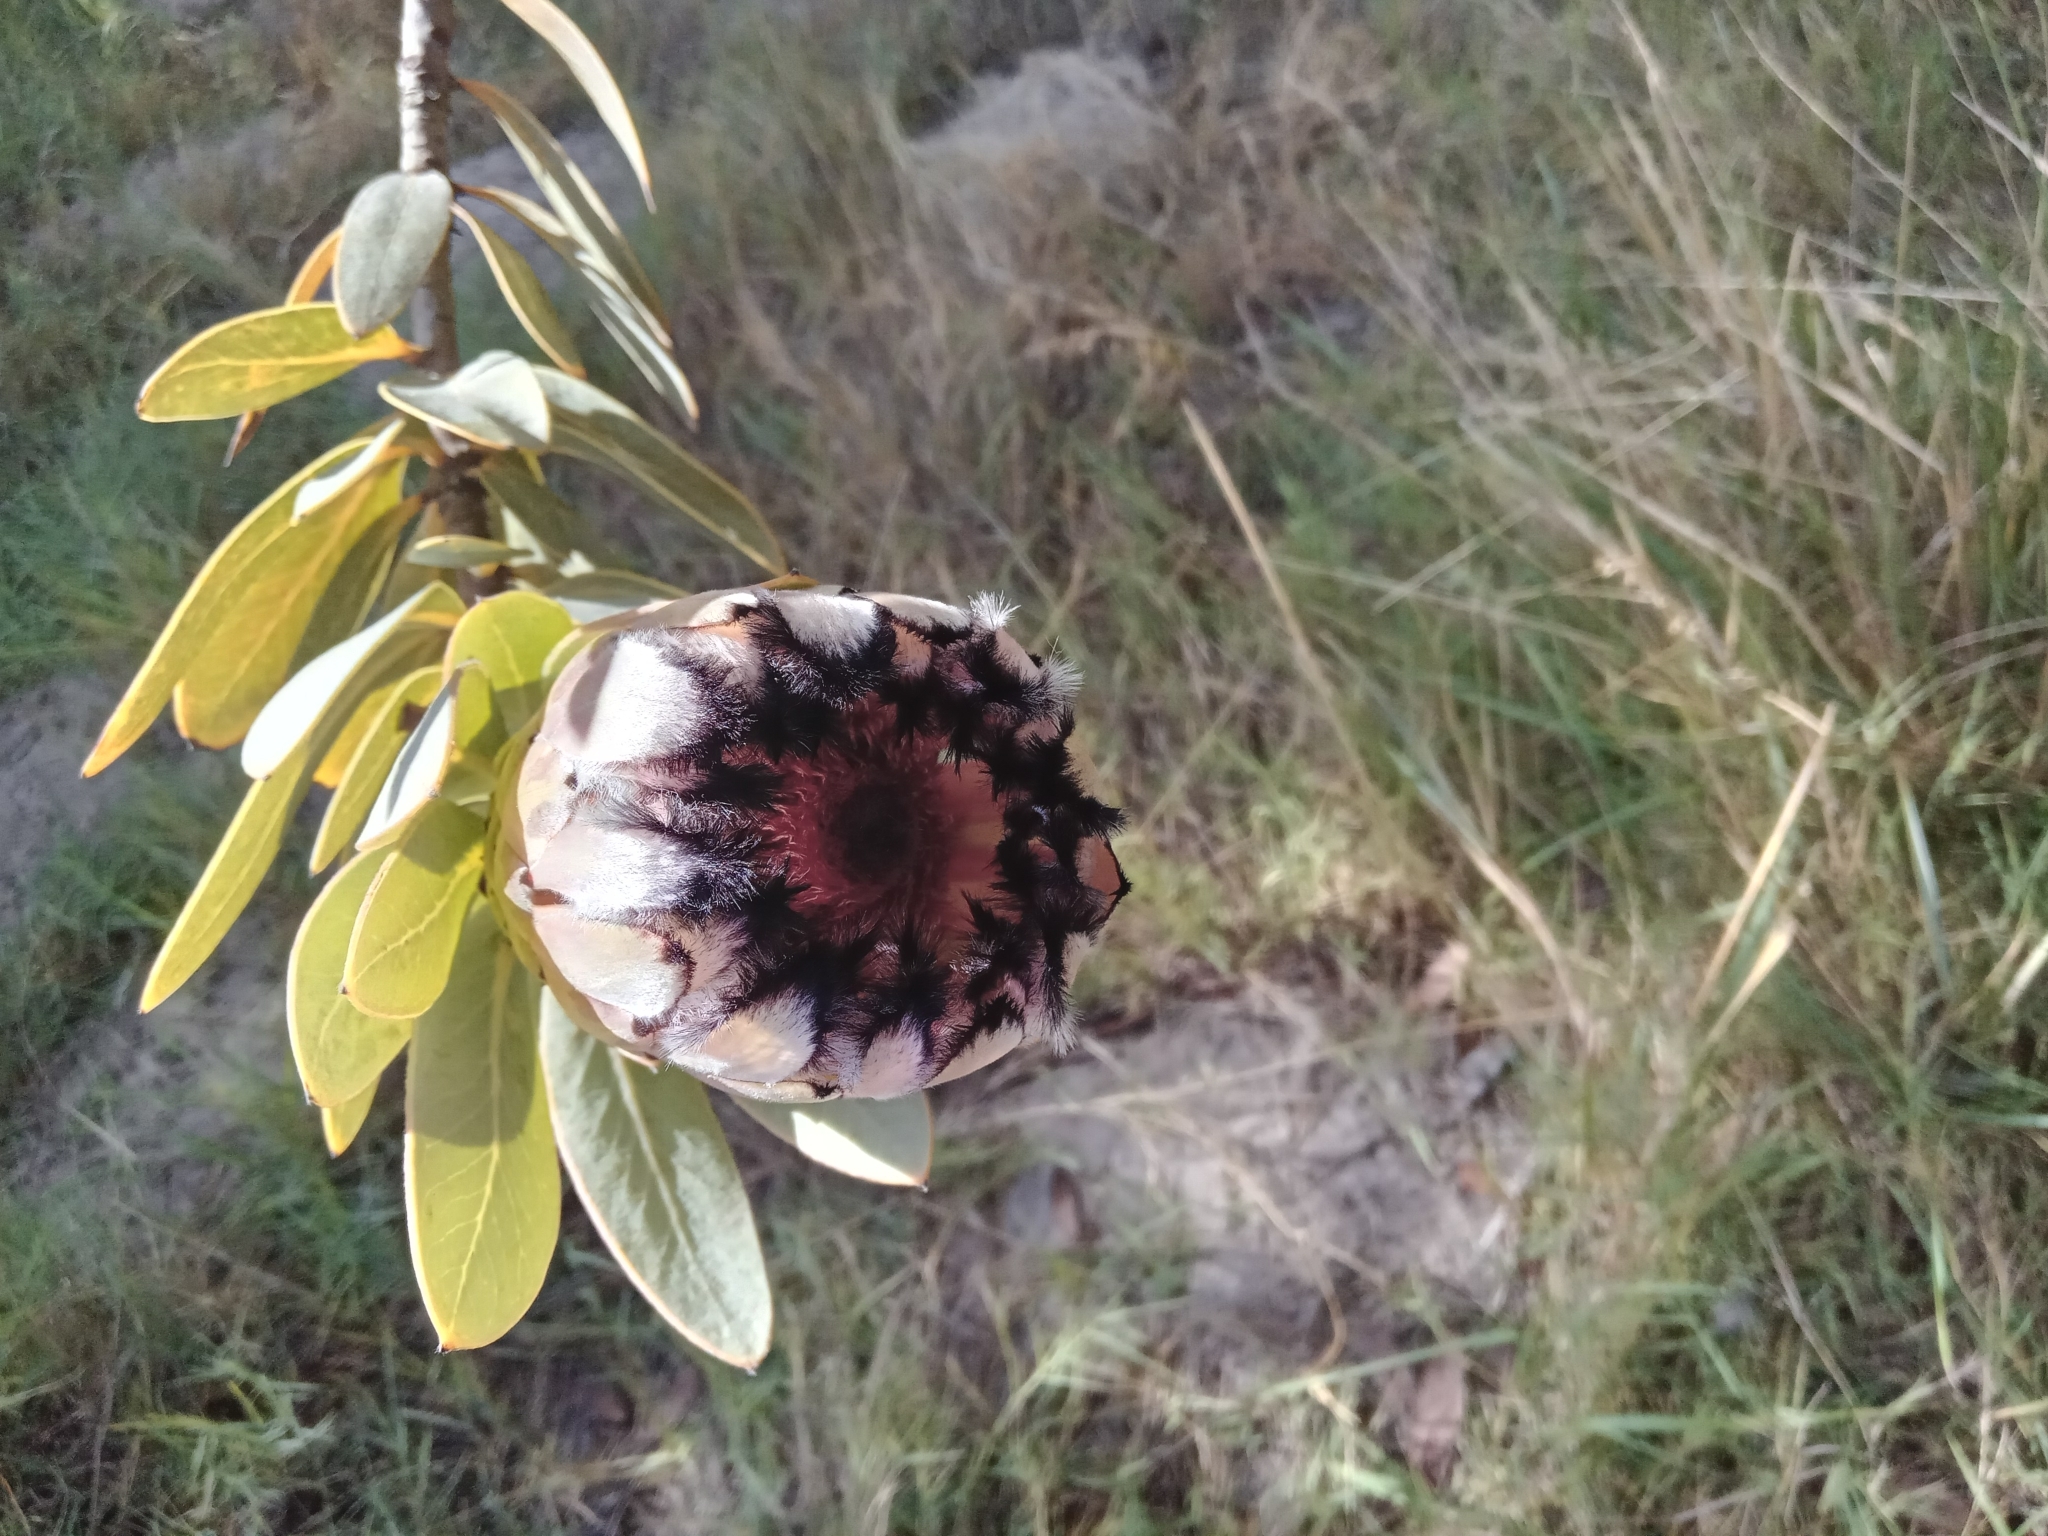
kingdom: Plantae
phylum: Tracheophyta
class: Magnoliopsida
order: Proteales
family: Proteaceae
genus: Protea
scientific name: Protea laurifolia
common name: Grey-leaf sugarbsh
